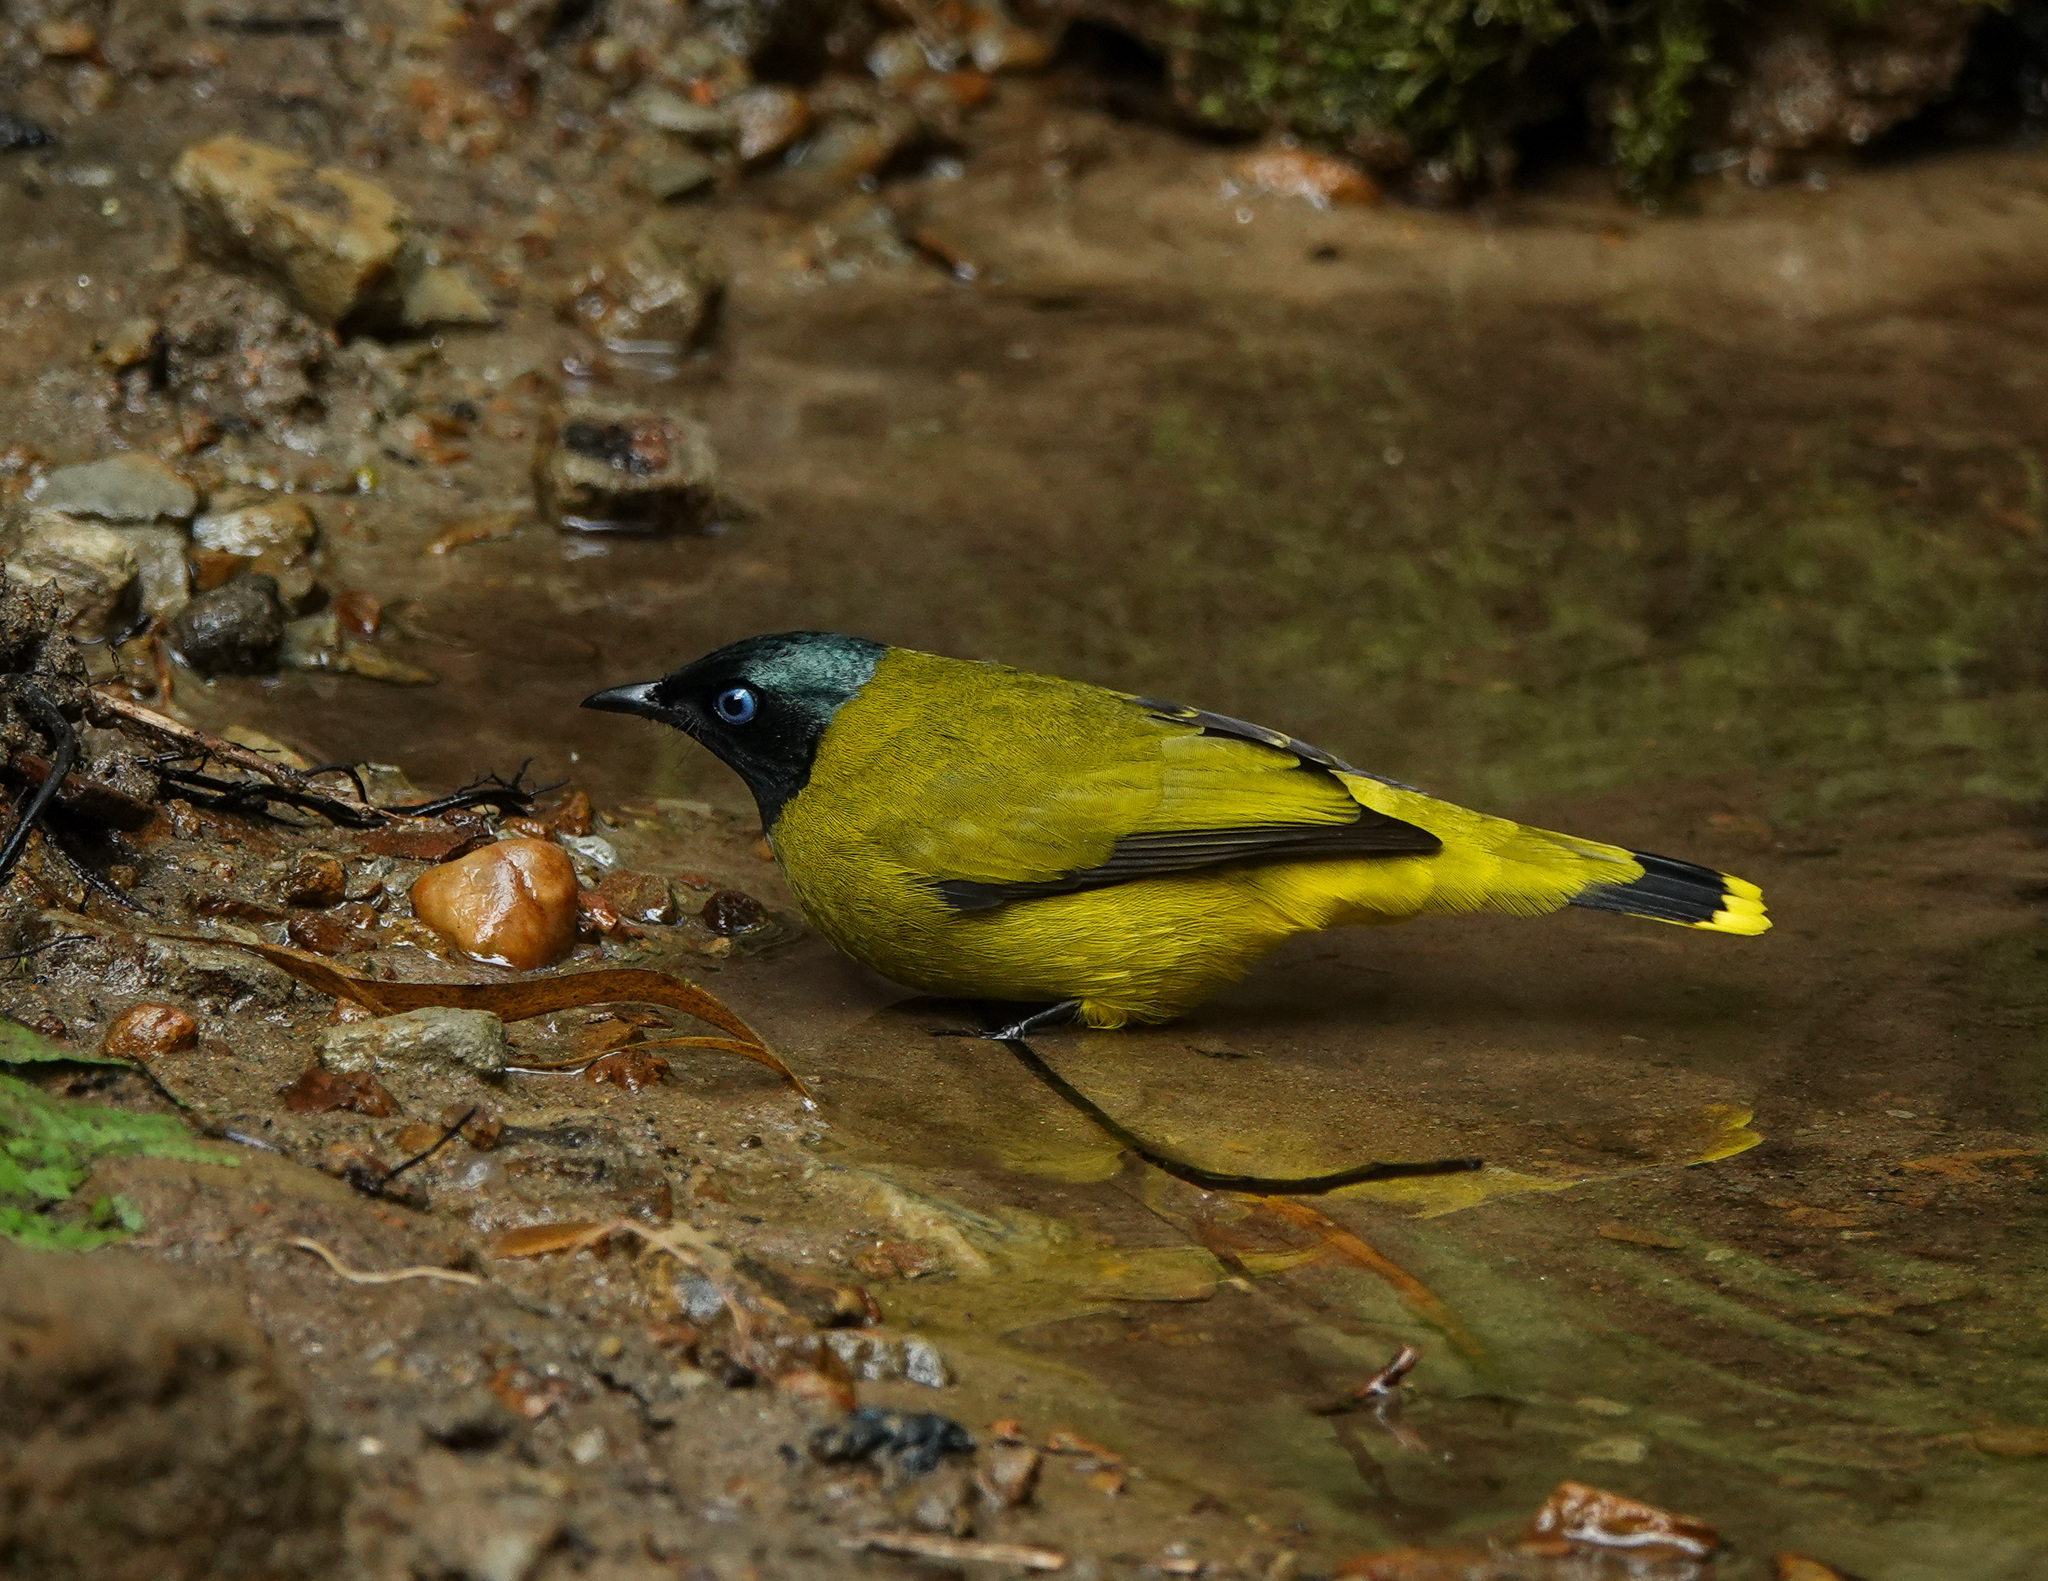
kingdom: Animalia
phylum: Chordata
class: Aves
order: Passeriformes
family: Pycnonotidae
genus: Microtarsus
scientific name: Microtarsus
